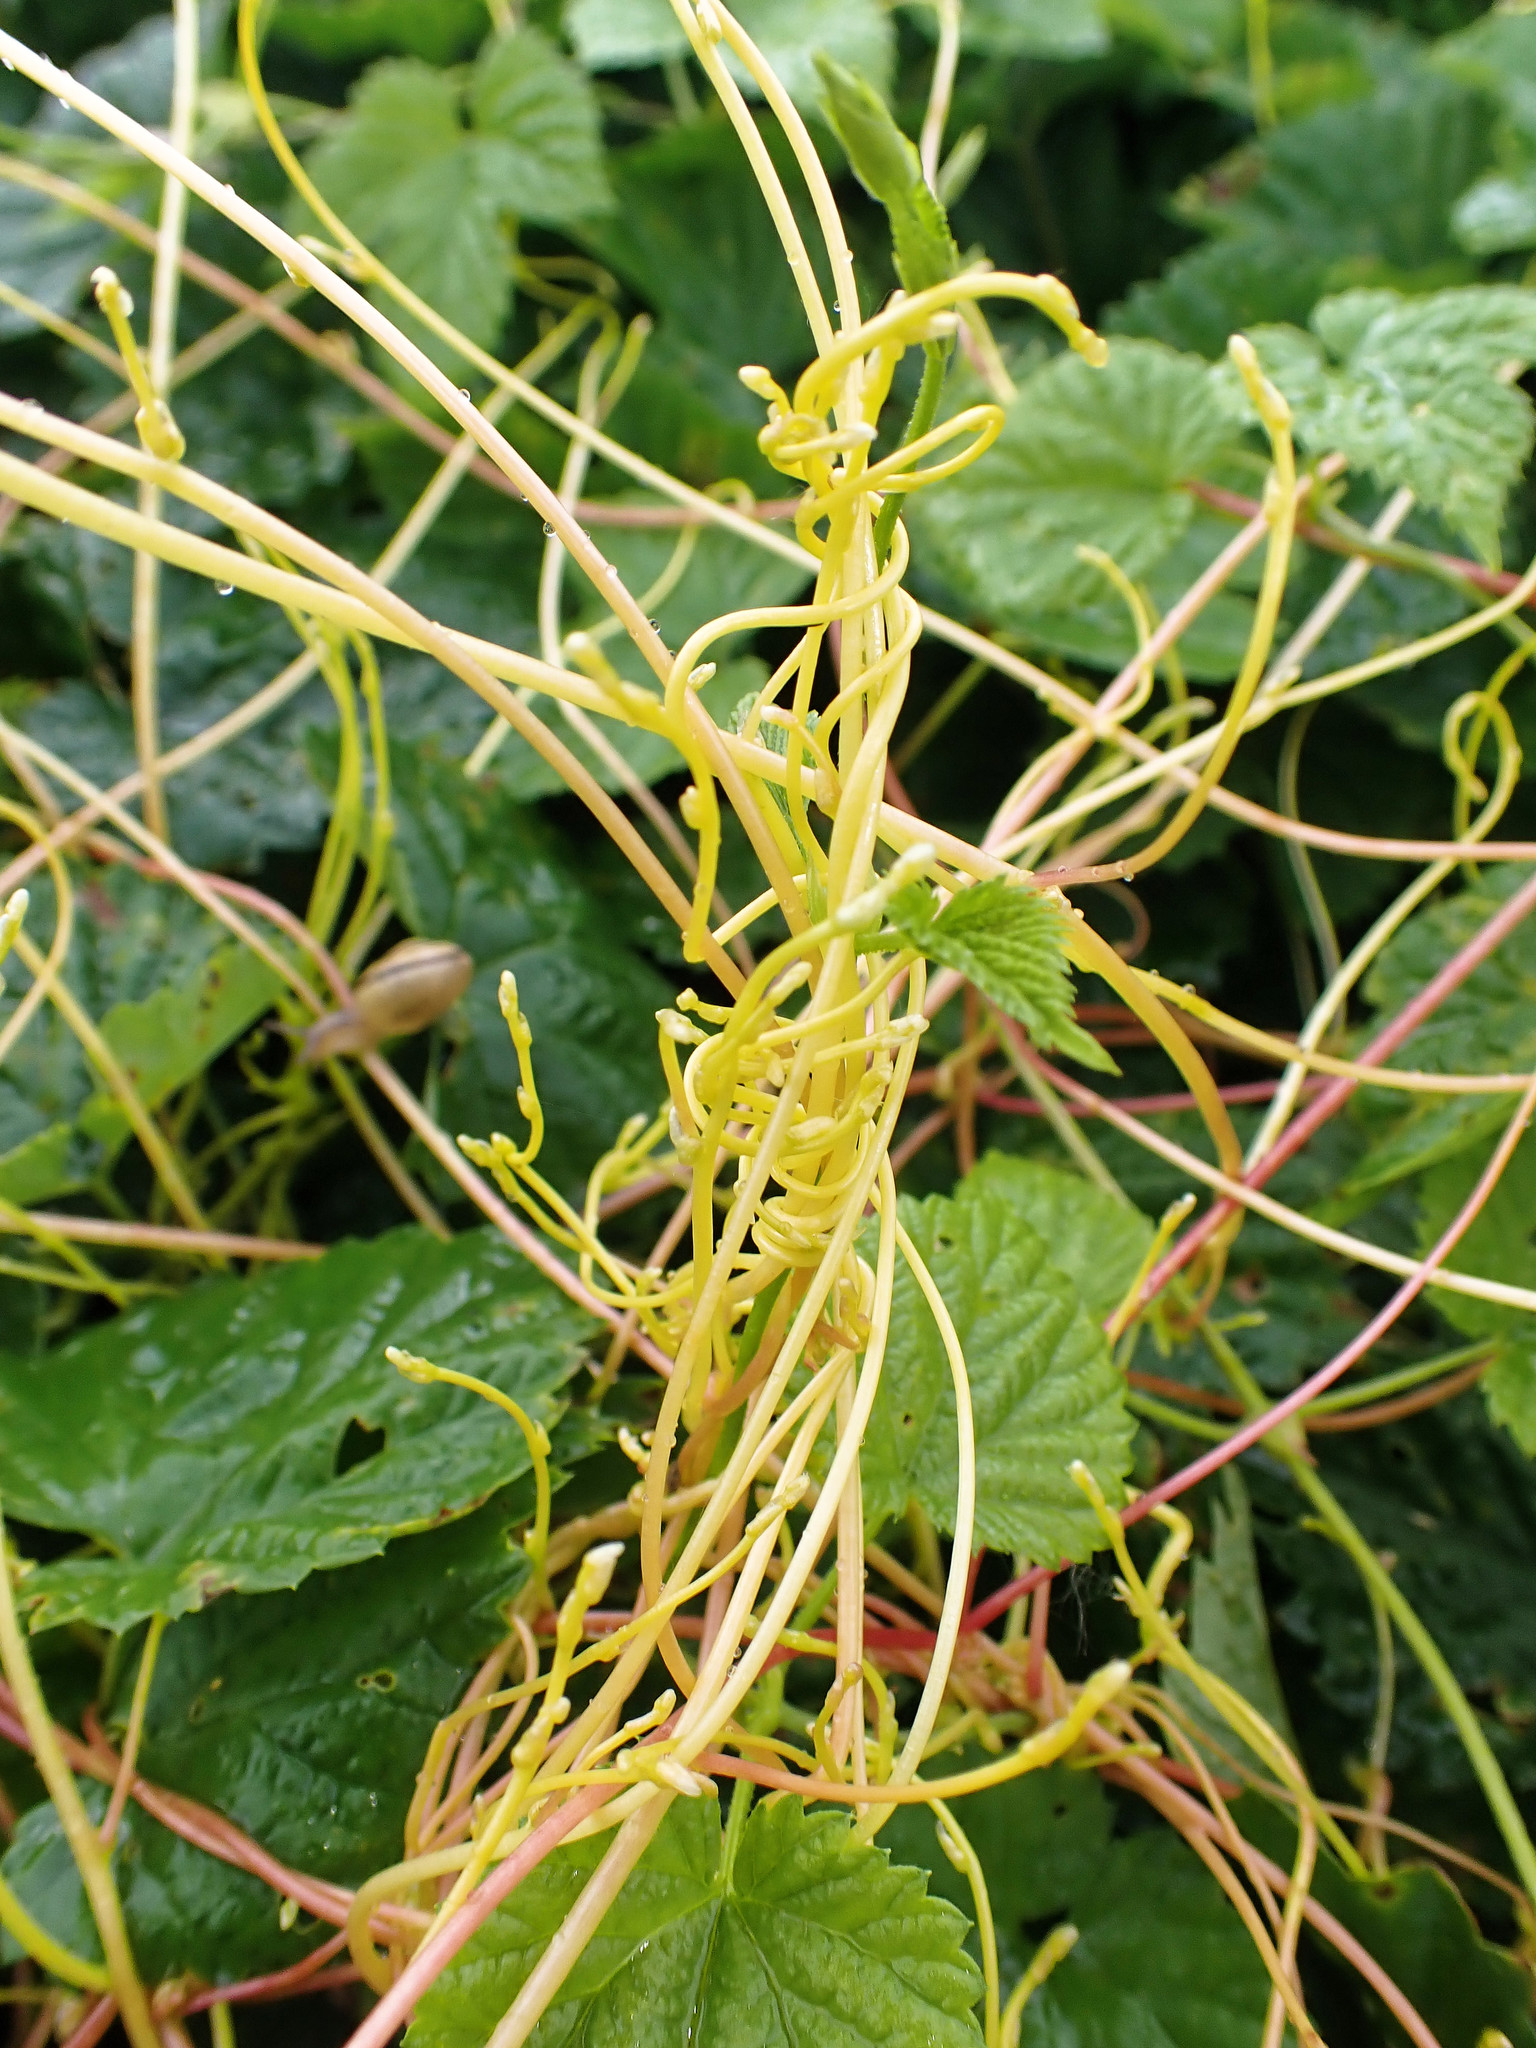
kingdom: Plantae
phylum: Tracheophyta
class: Magnoliopsida
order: Solanales
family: Convolvulaceae
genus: Cuscuta
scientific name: Cuscuta europaea
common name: Greater dodder
